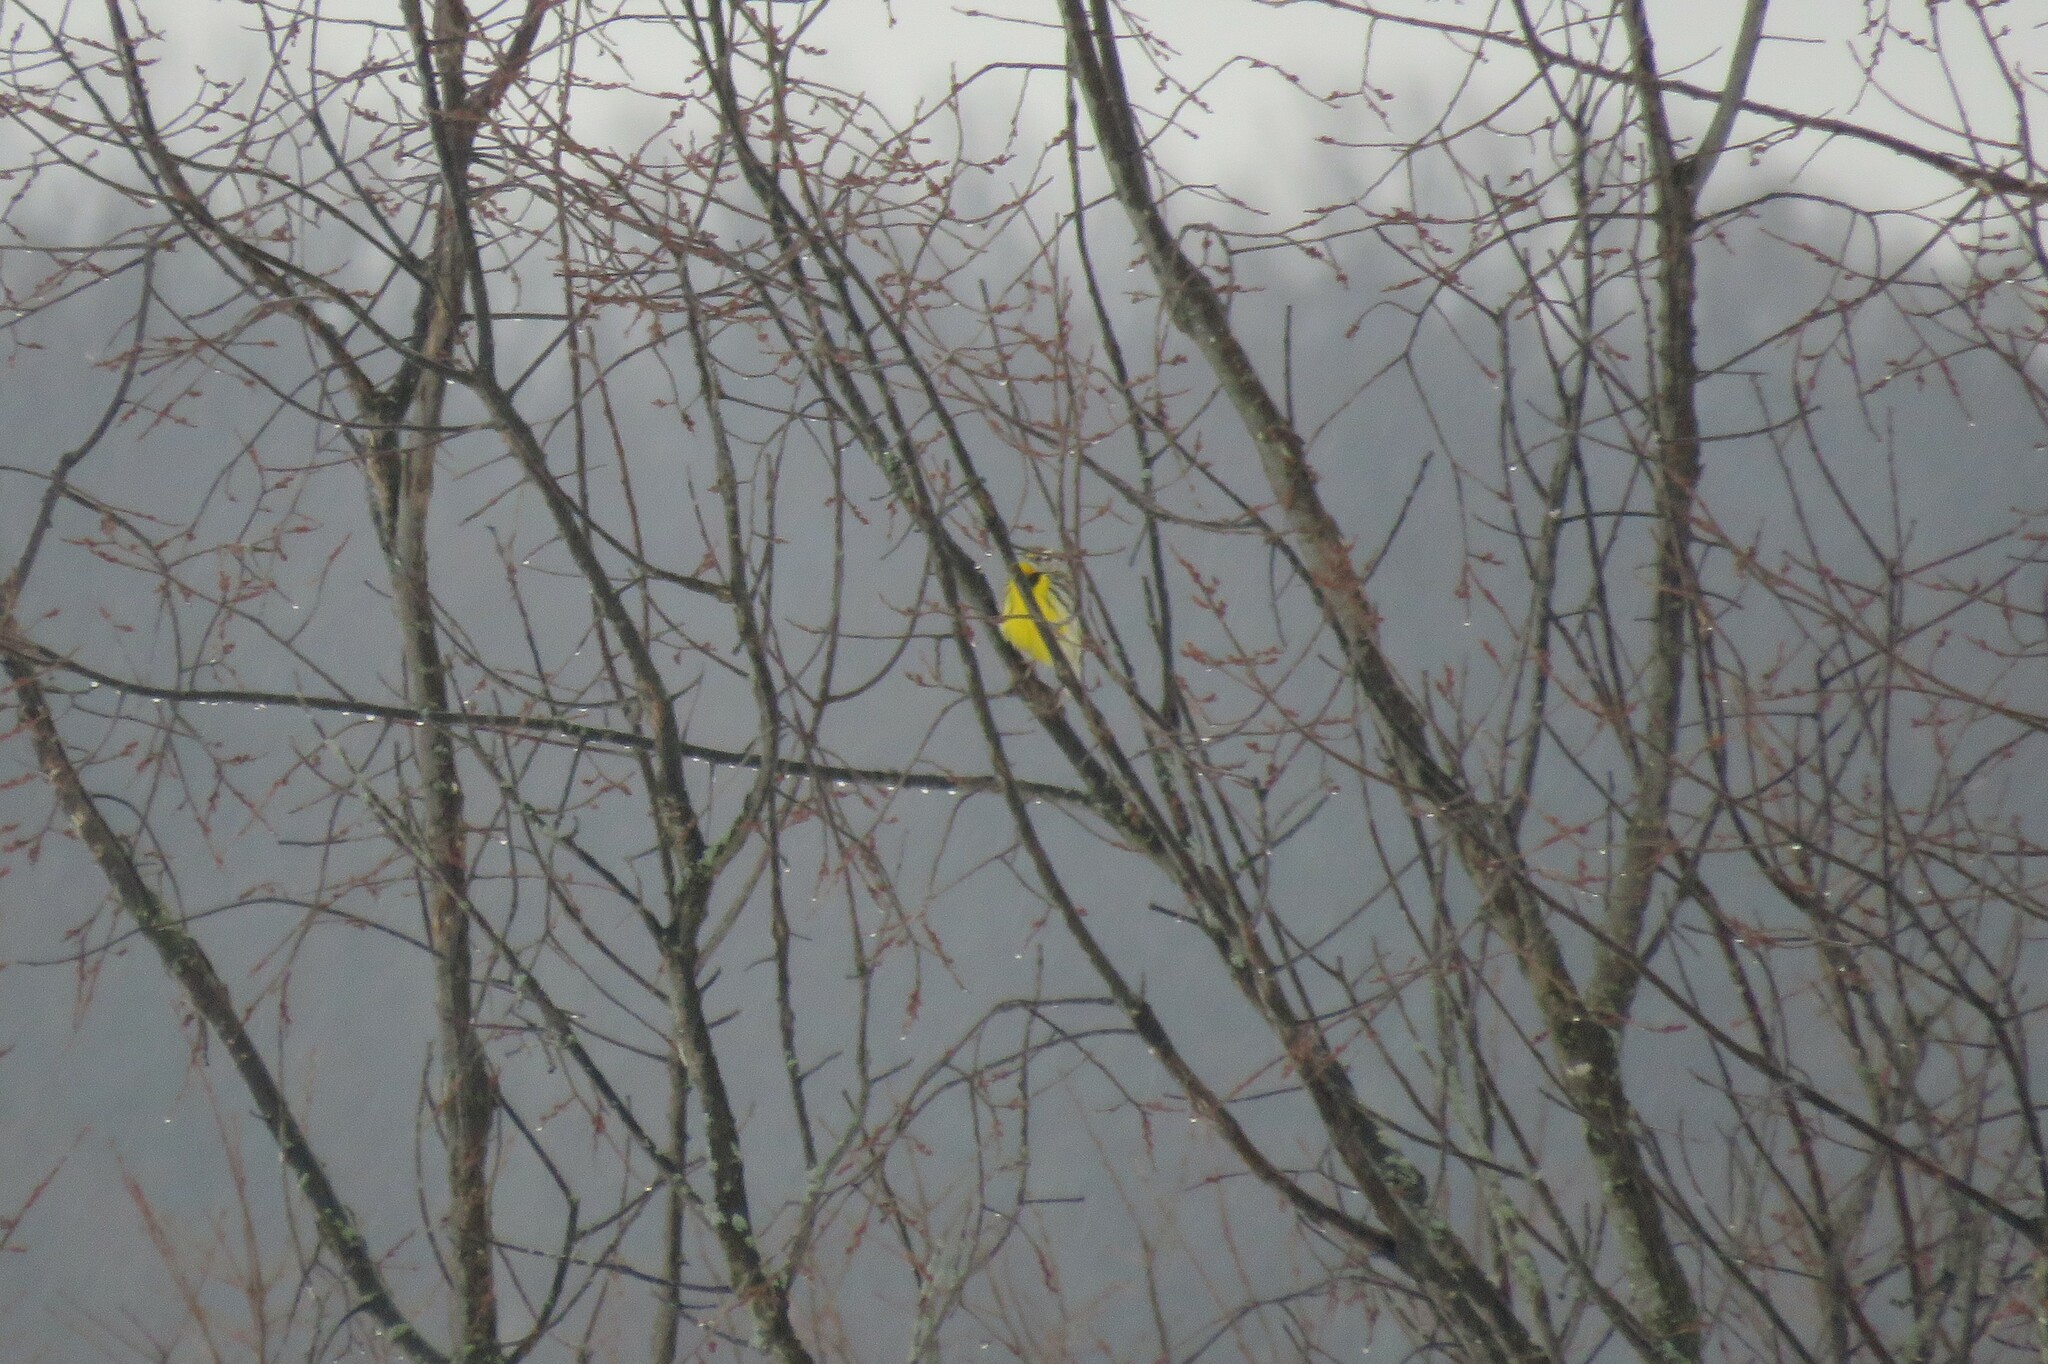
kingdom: Animalia
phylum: Chordata
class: Aves
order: Passeriformes
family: Icteridae
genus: Sturnella
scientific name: Sturnella magna
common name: Eastern meadowlark
